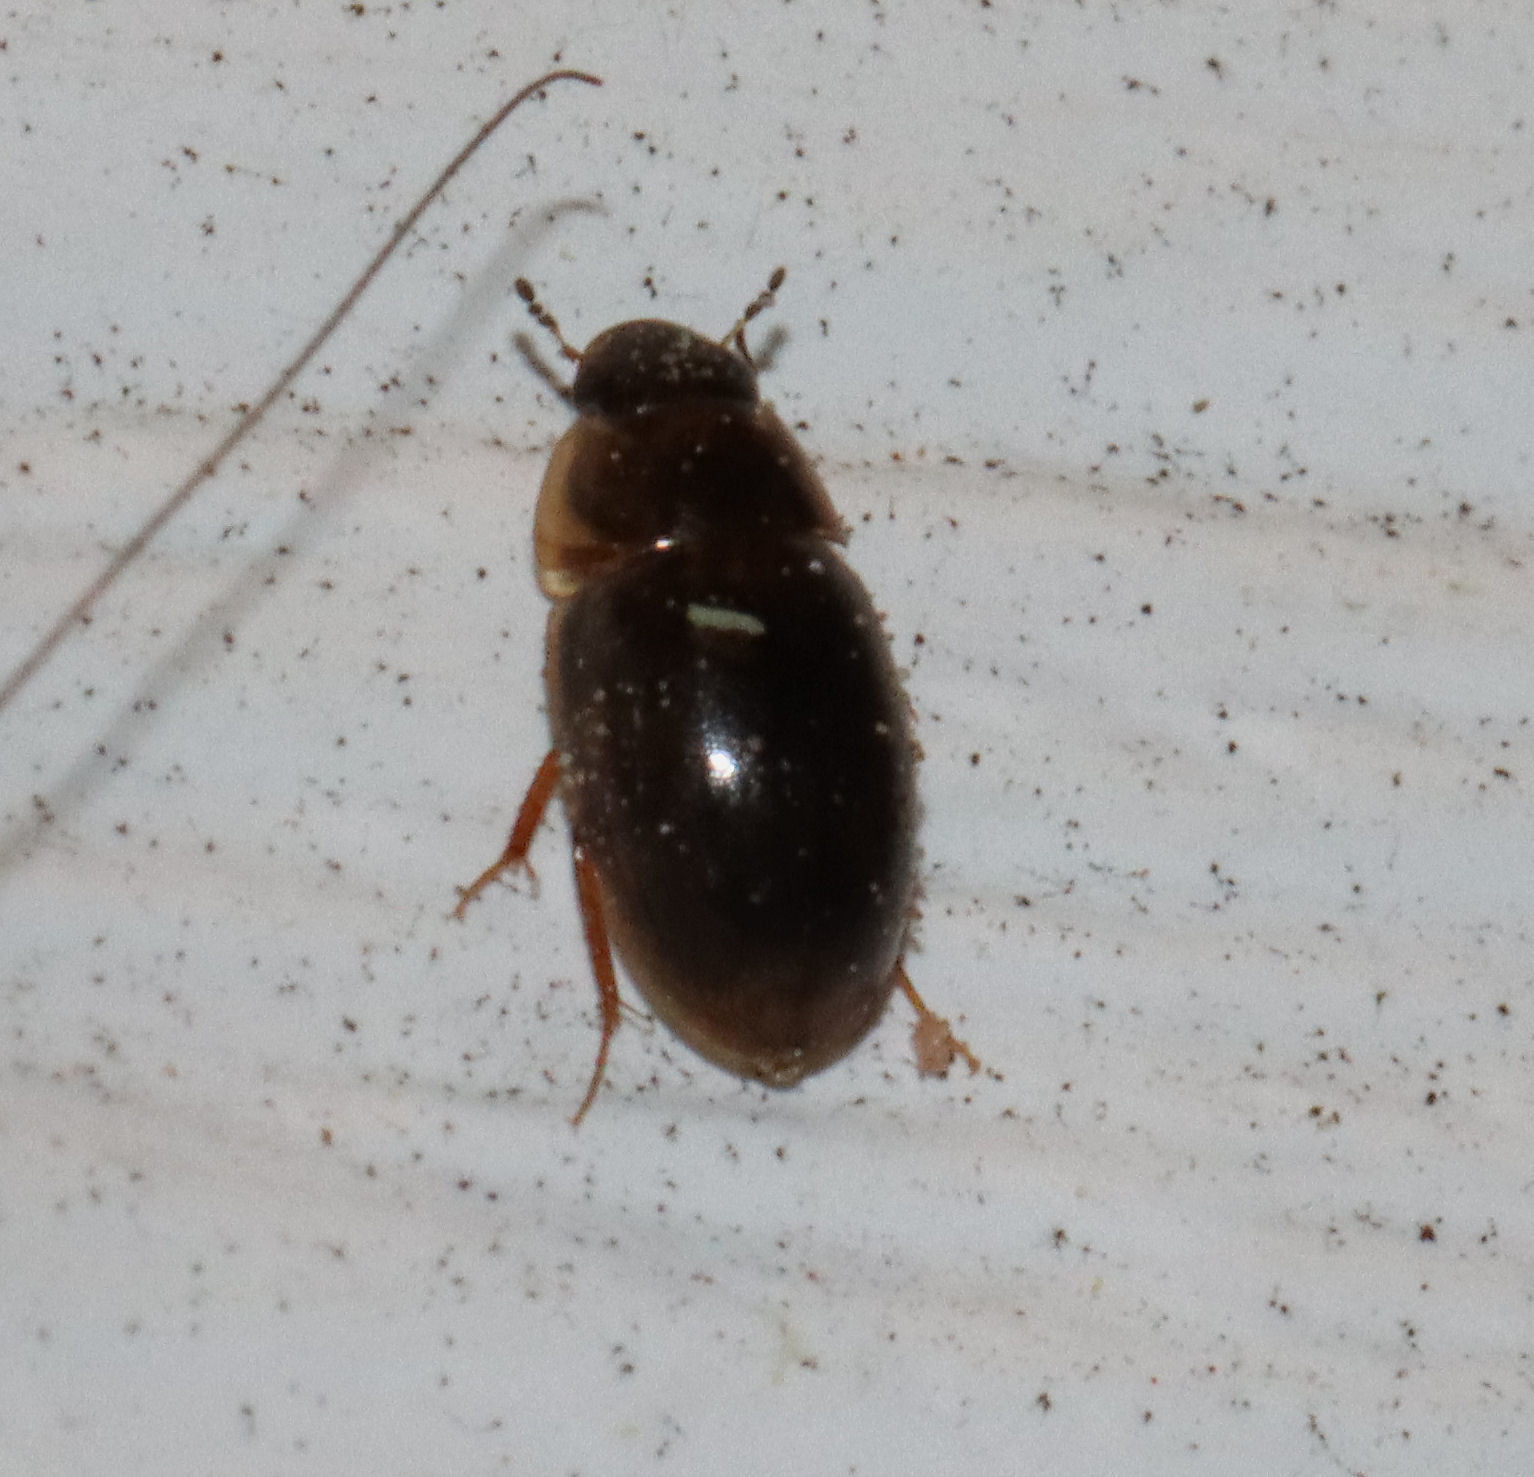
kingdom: Animalia
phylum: Arthropoda
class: Insecta
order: Coleoptera
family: Hydrophilidae
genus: Enochrus
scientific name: Enochrus
